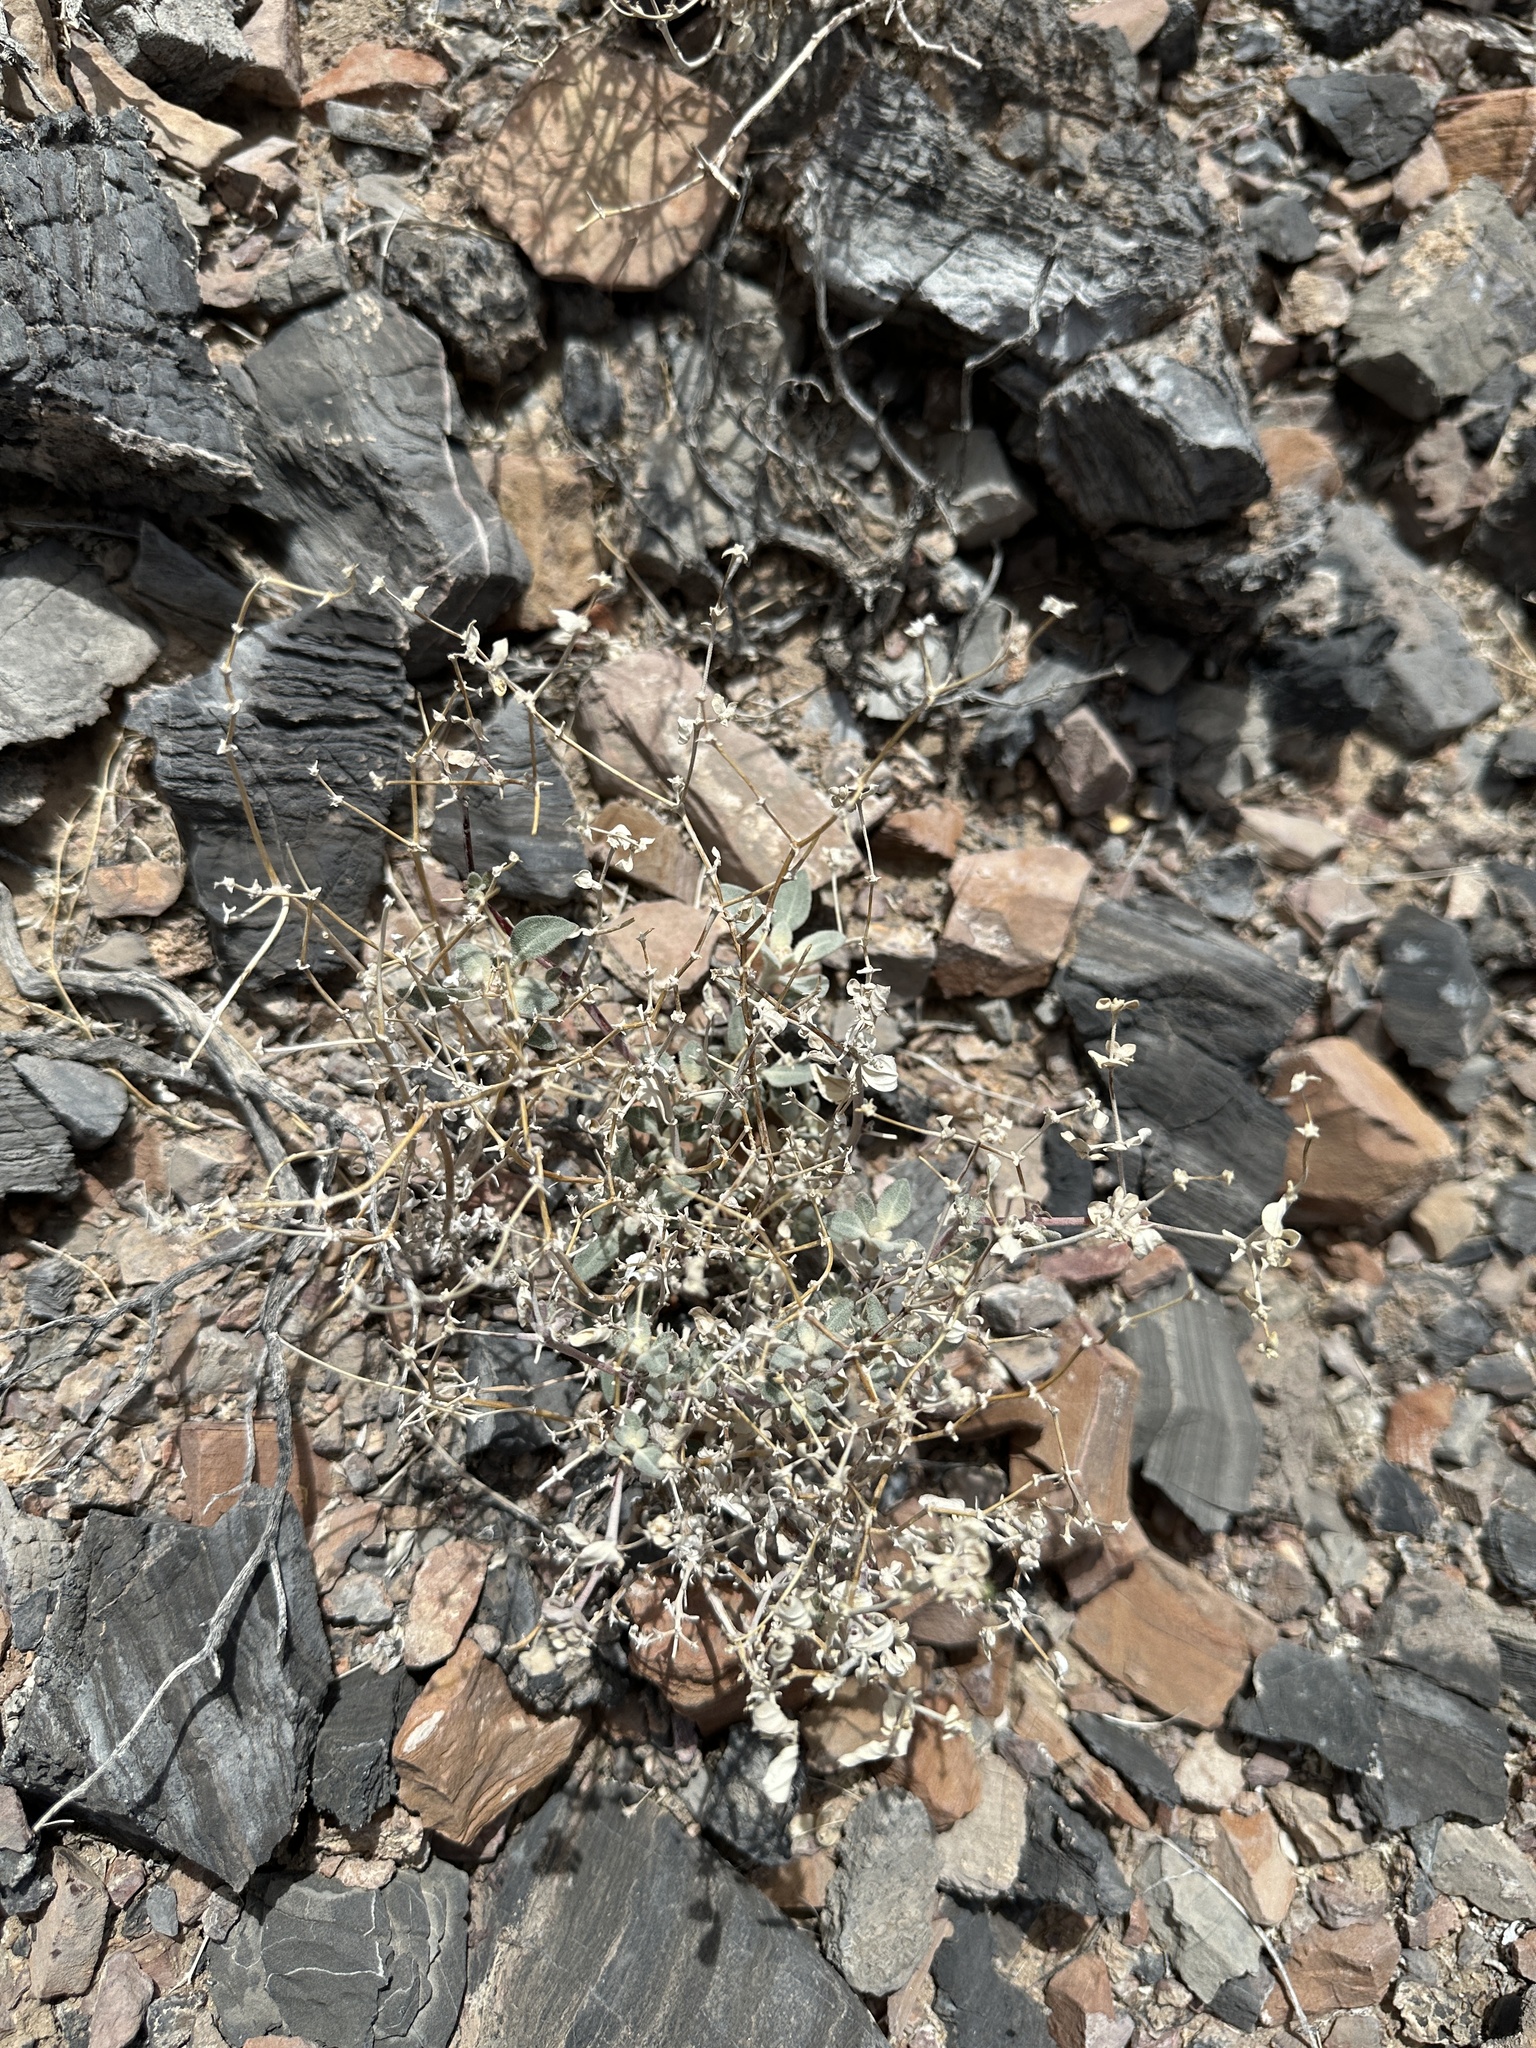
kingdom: Plantae
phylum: Tracheophyta
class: Magnoliopsida
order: Caryophyllales
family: Amaranthaceae
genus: Tidestromia
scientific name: Tidestromia suffruticosa
